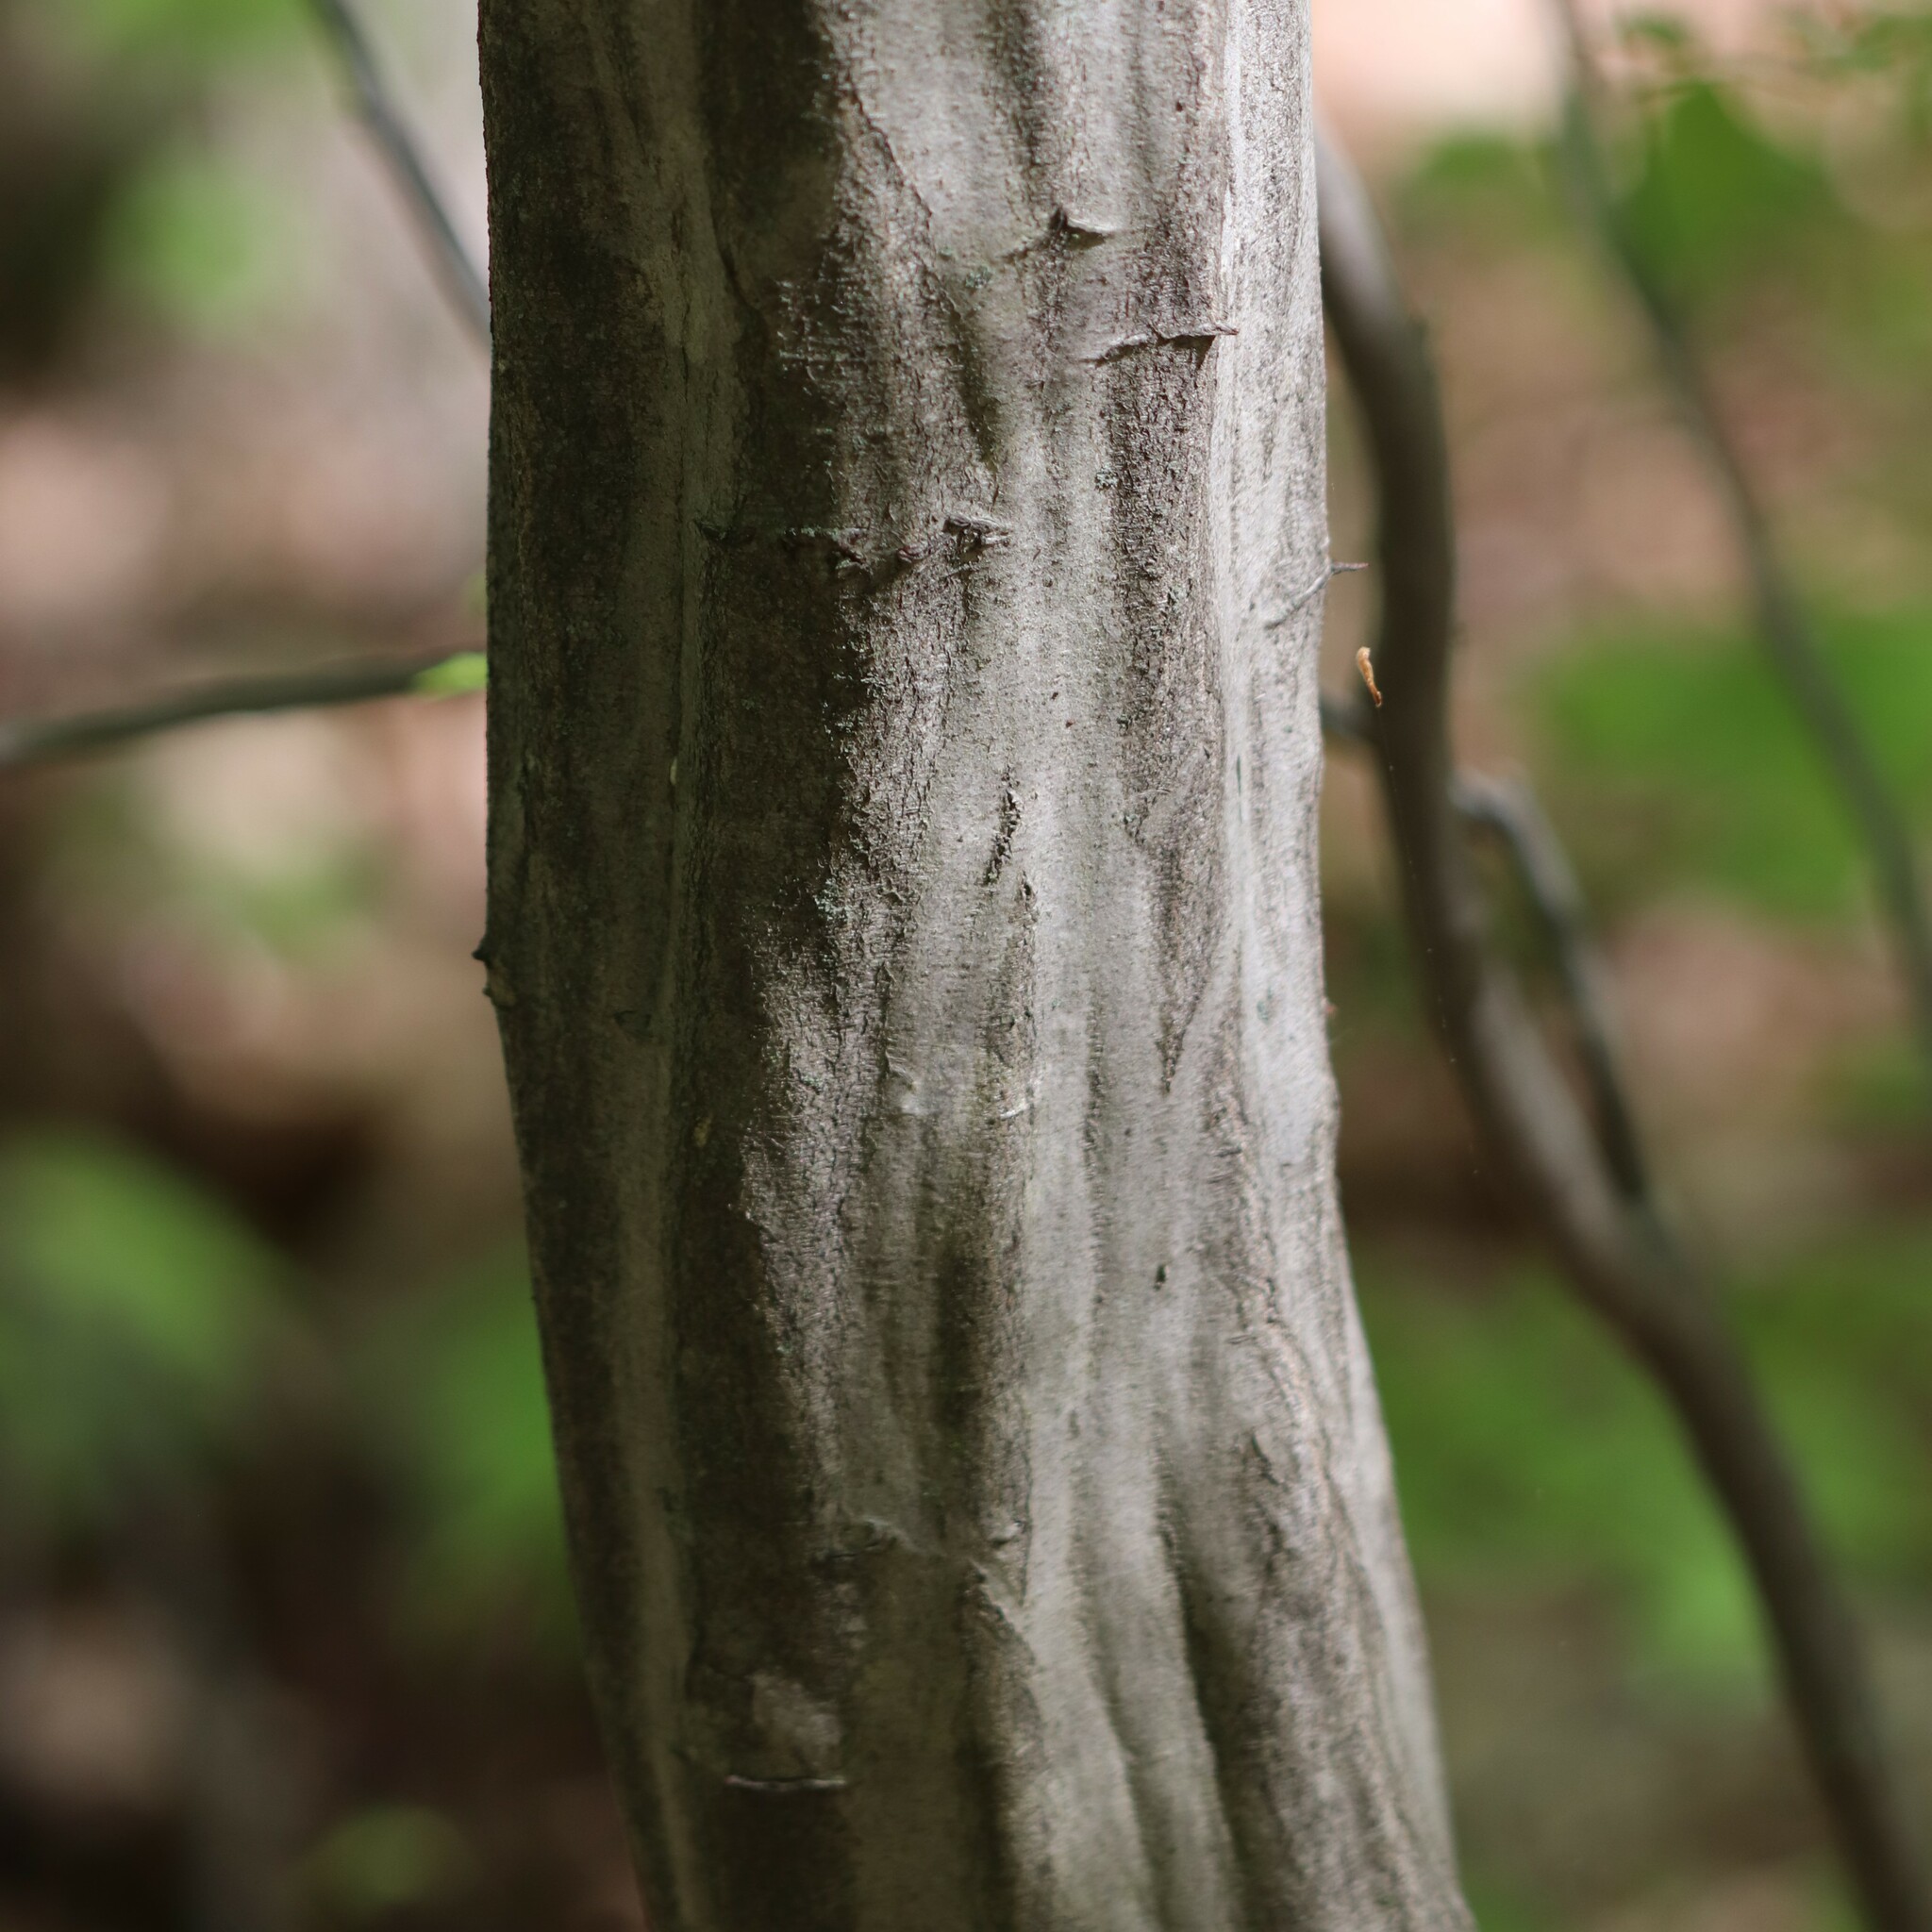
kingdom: Plantae
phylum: Tracheophyta
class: Magnoliopsida
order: Fagales
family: Betulaceae
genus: Carpinus
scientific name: Carpinus caroliniana
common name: American hornbeam
